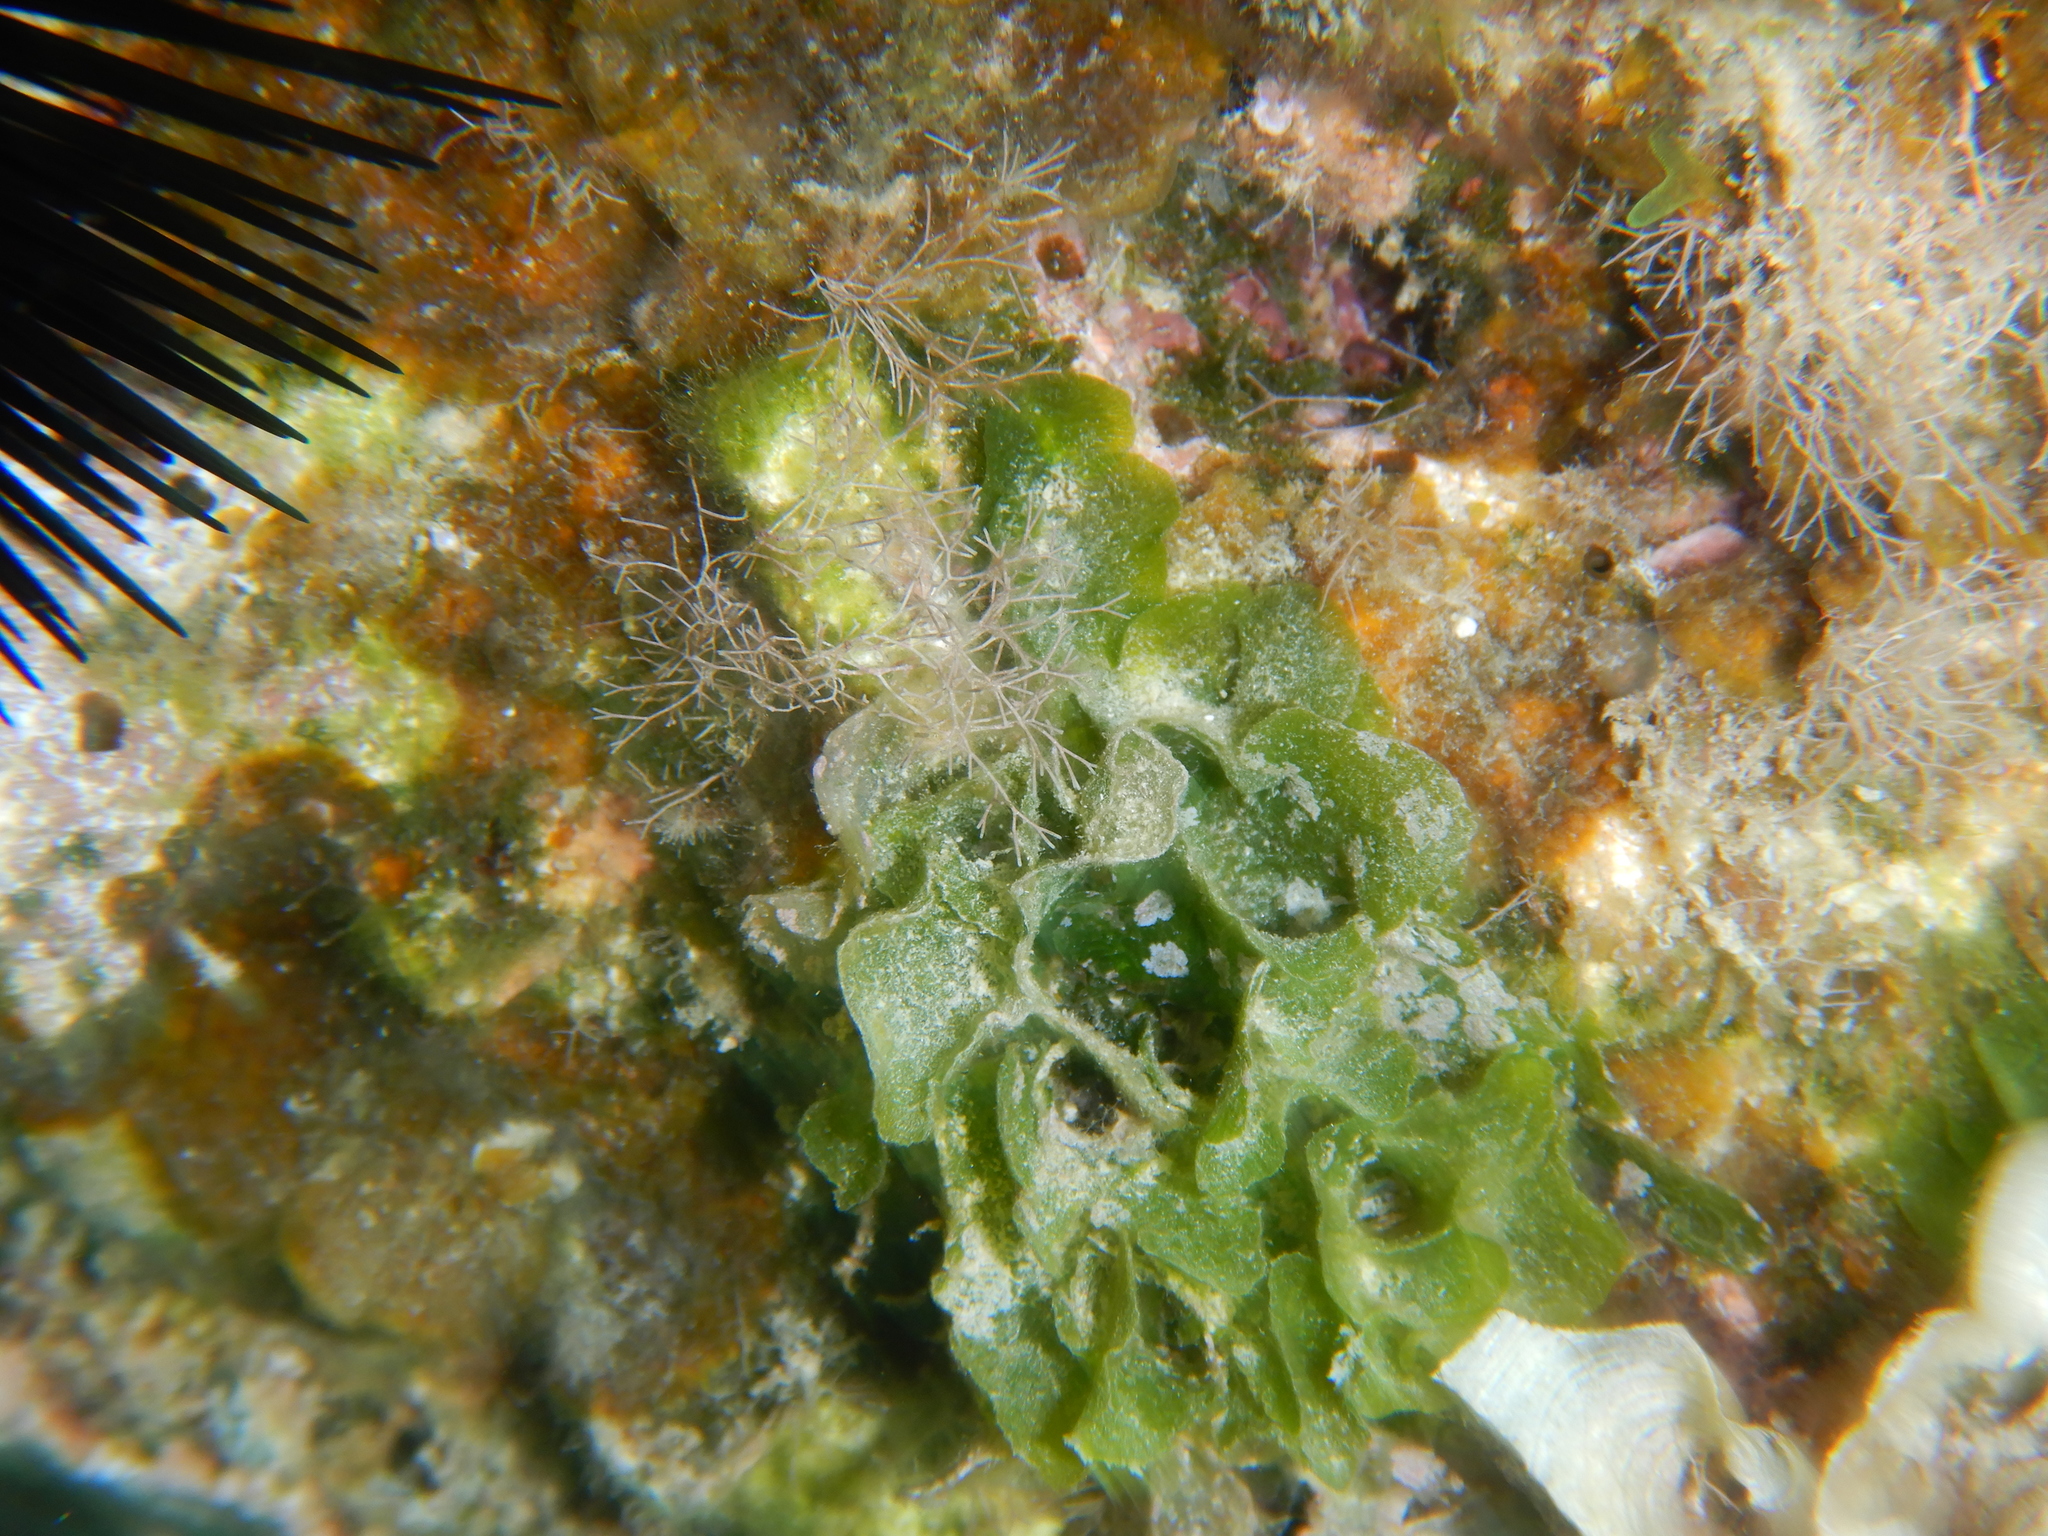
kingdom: Plantae
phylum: Chlorophyta
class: Ulvophyceae
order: Cladophorales
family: Anadyomenaceae
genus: Anadyomene
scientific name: Anadyomene stellata
